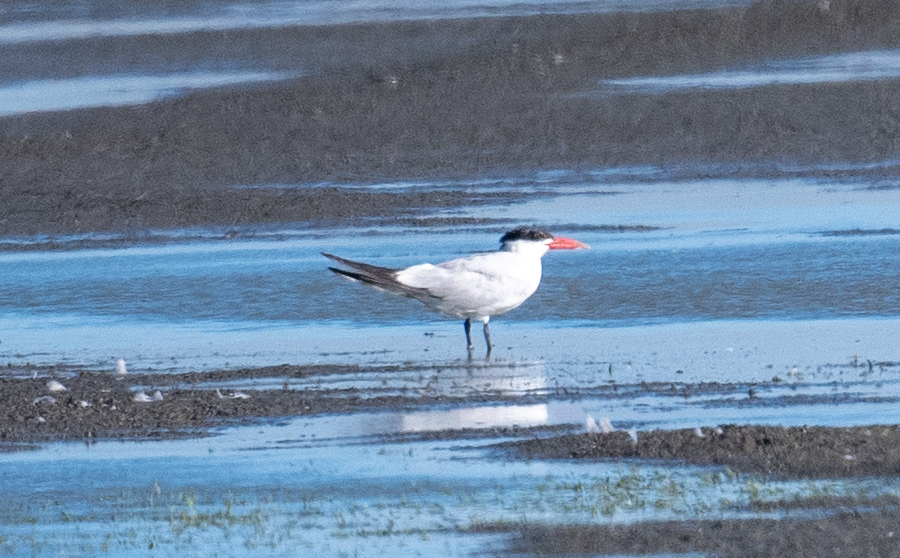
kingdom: Animalia
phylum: Chordata
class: Aves
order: Charadriiformes
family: Laridae
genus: Hydroprogne
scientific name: Hydroprogne caspia
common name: Caspian tern
